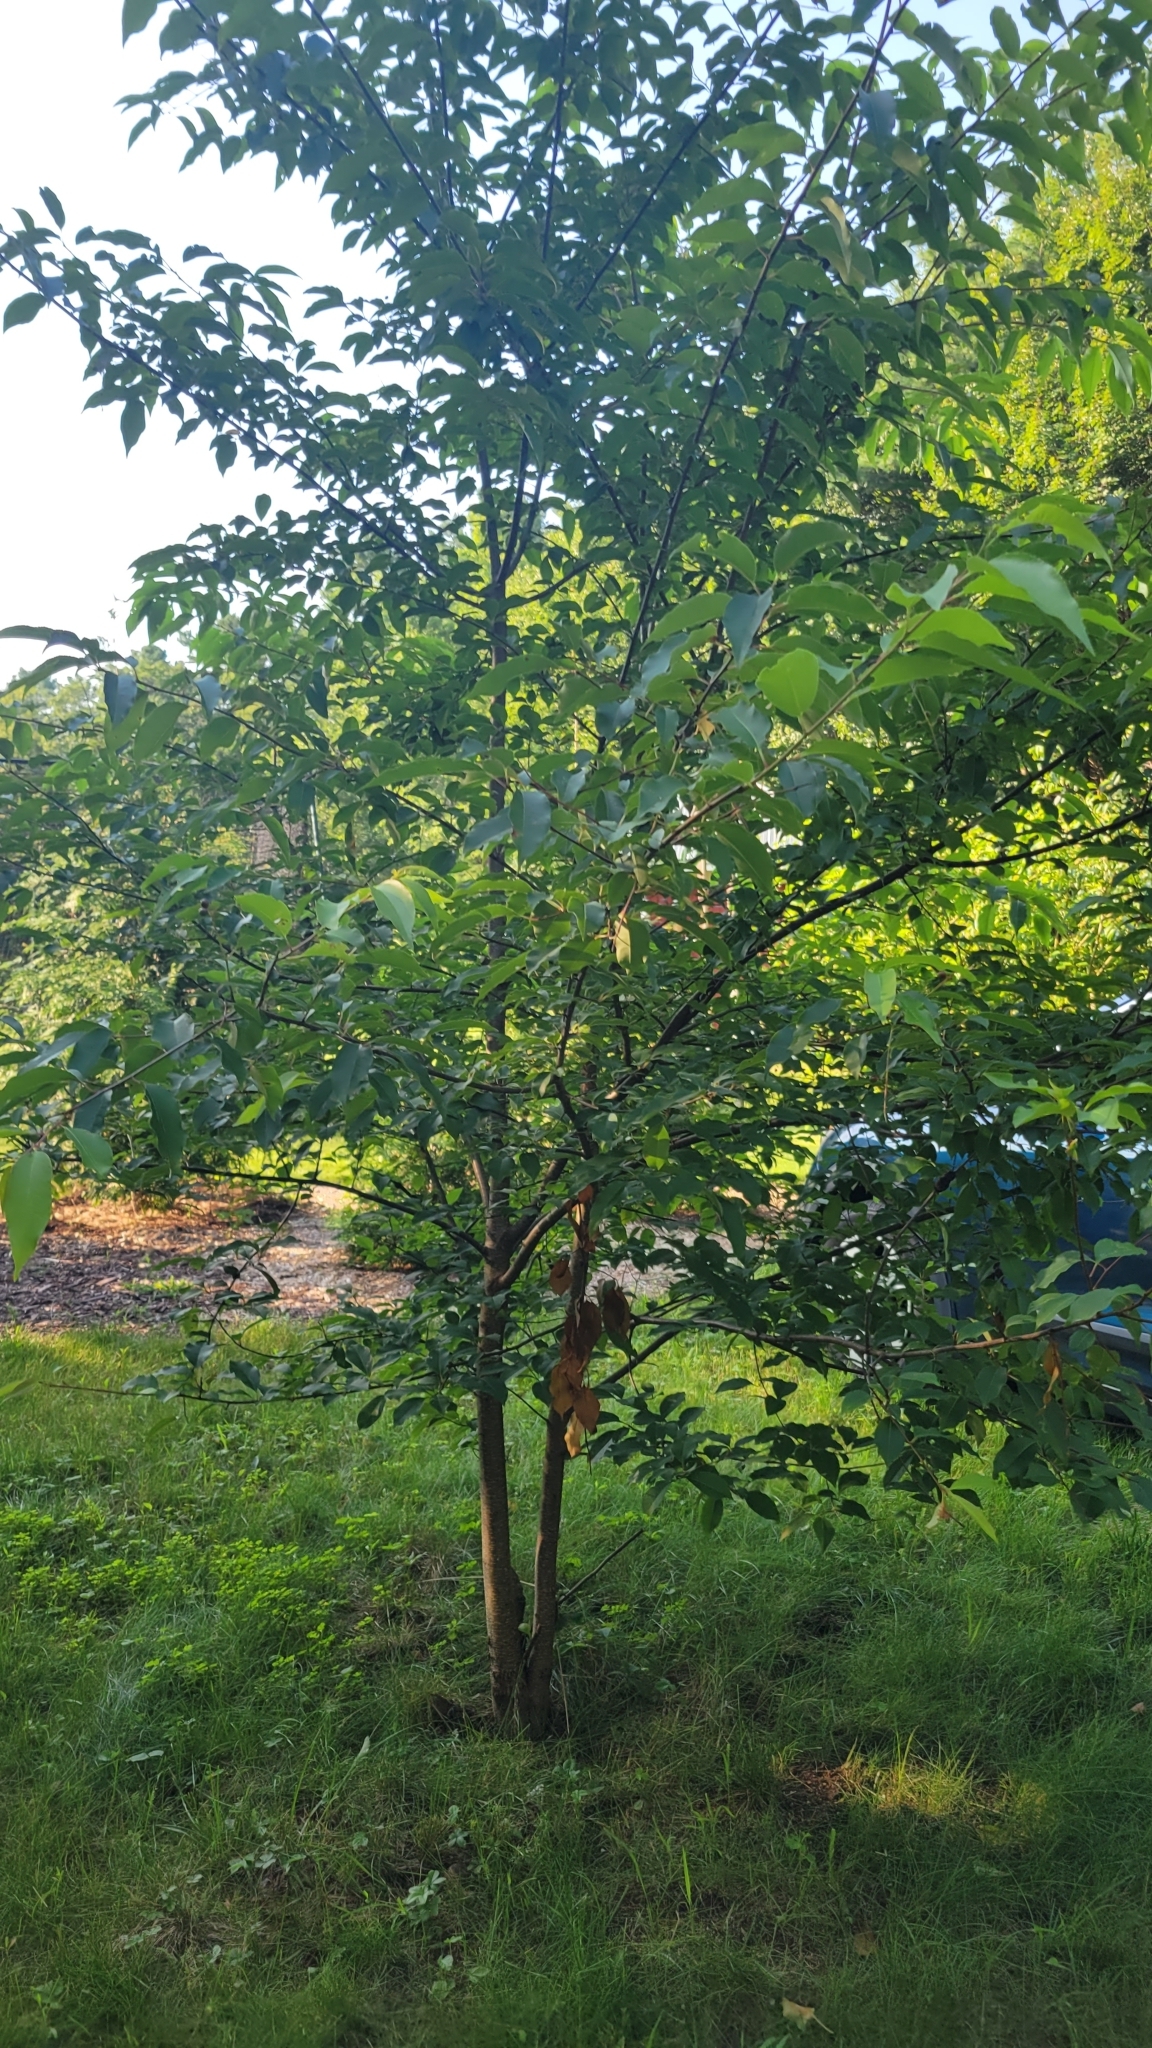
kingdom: Plantae
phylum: Tracheophyta
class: Magnoliopsida
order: Rosales
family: Rosaceae
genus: Prunus
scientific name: Prunus serotina
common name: Black cherry
